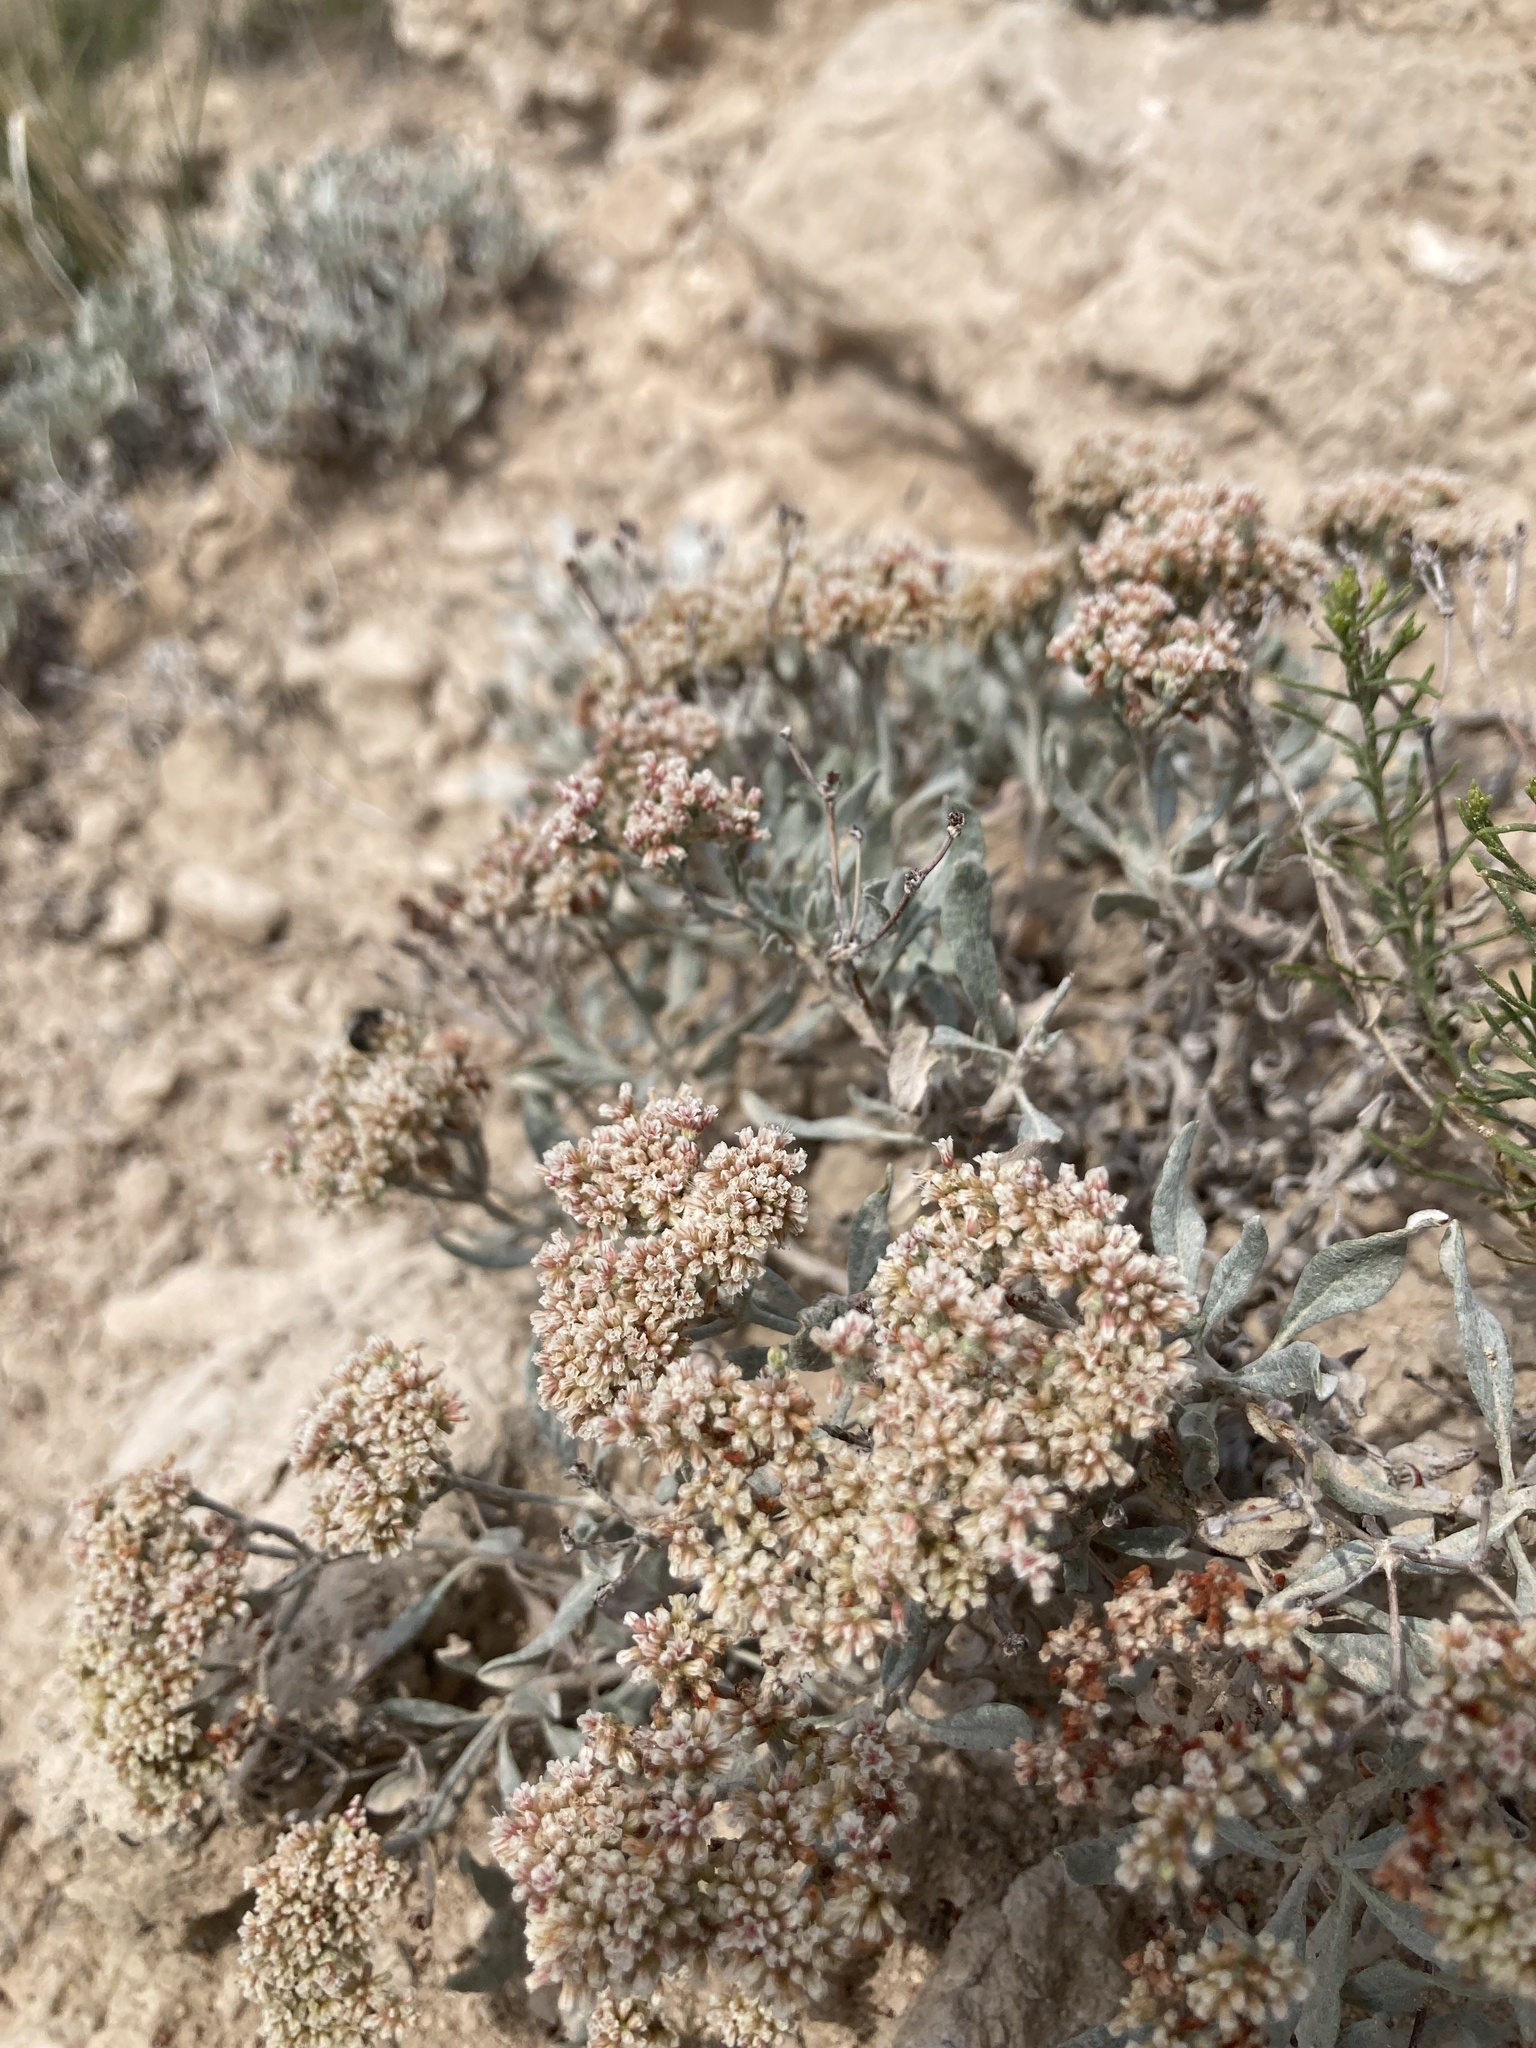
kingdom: Plantae
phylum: Tracheophyta
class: Magnoliopsida
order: Caryophyllales
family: Polygonaceae
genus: Eriogonum
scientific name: Eriogonum nebraskense
